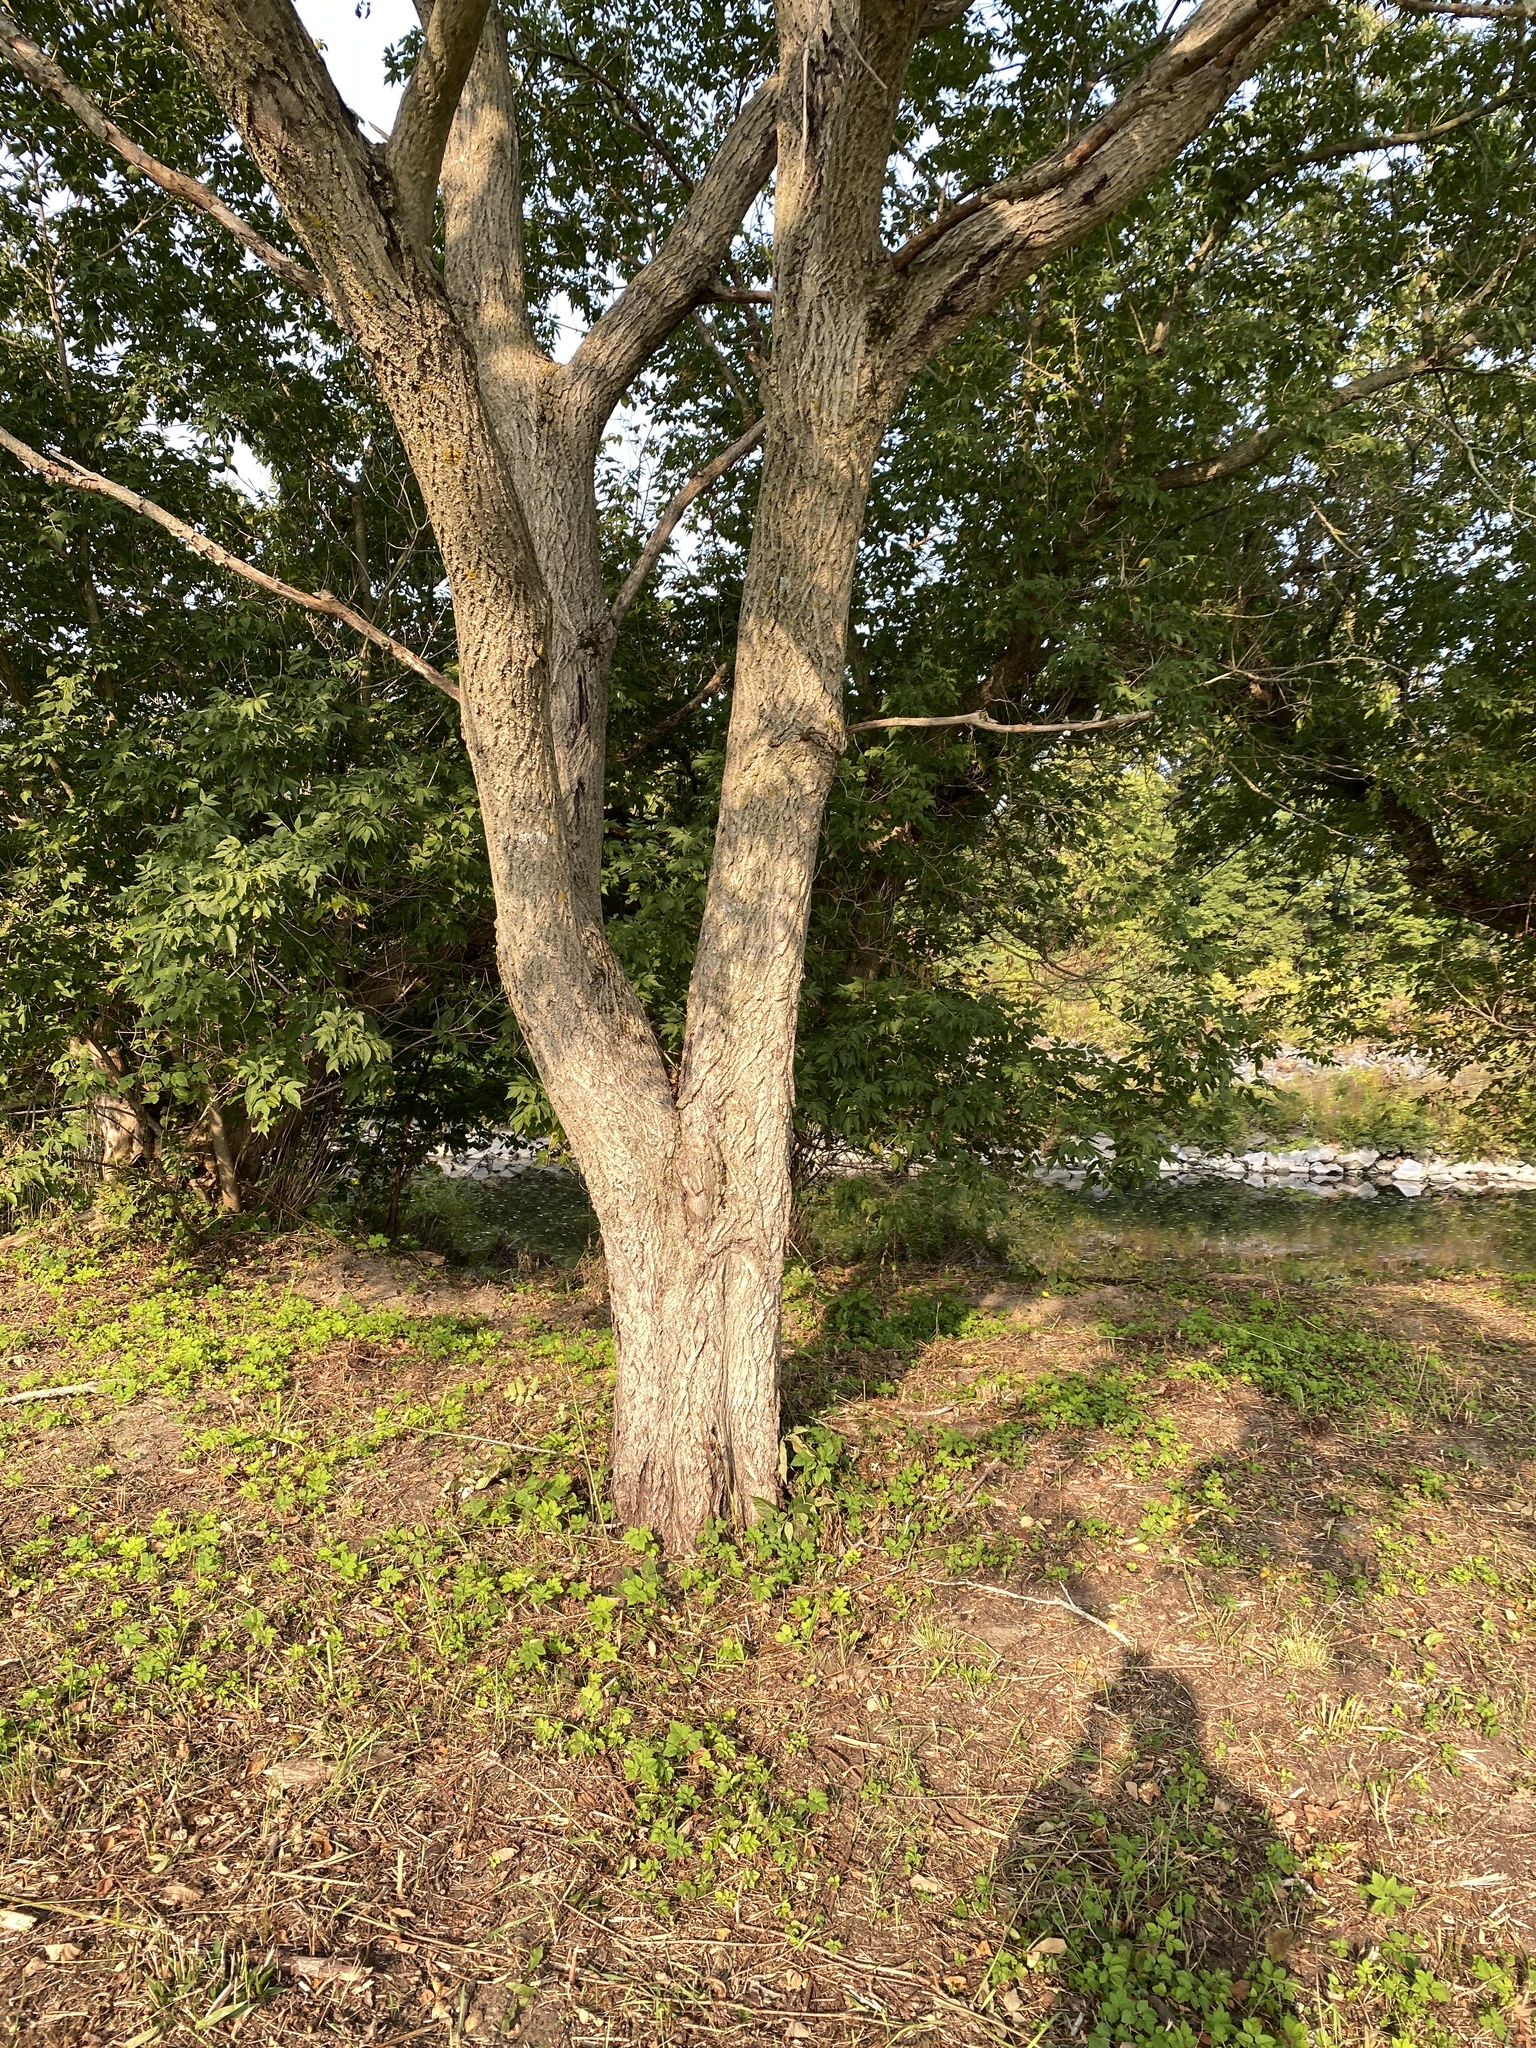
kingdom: Plantae
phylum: Tracheophyta
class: Magnoliopsida
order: Fagales
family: Juglandaceae
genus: Juglans
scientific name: Juglans cinerea
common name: Butternut
